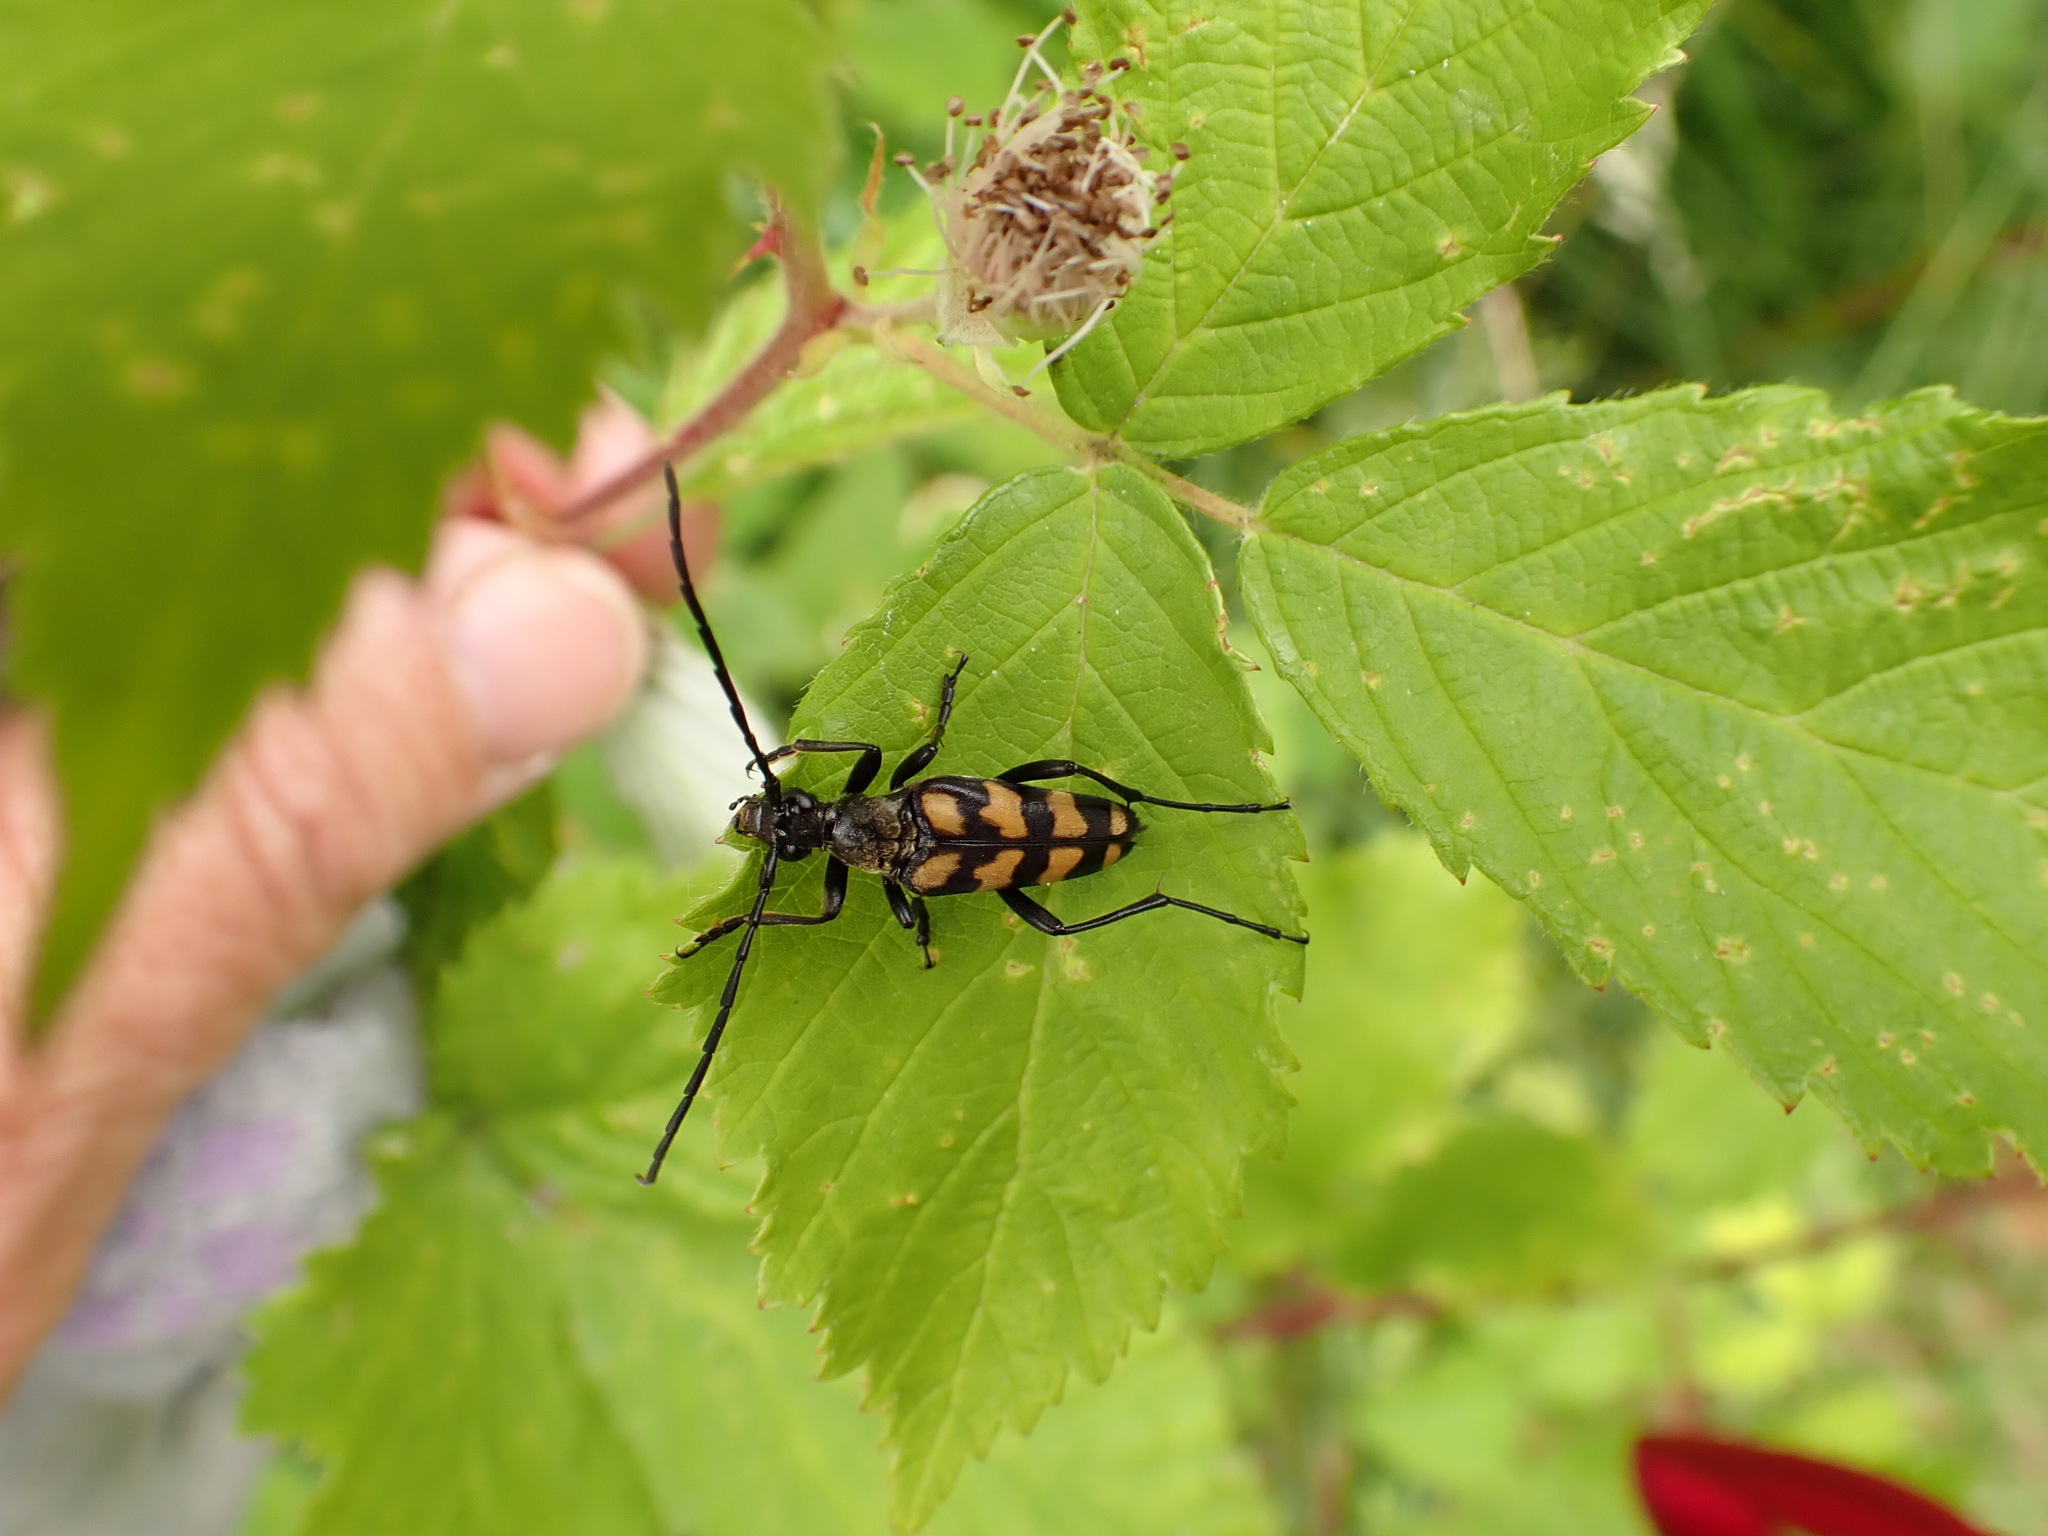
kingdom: Animalia
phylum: Arthropoda
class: Insecta
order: Coleoptera
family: Cerambycidae
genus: Leptura
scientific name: Leptura quadrifasciata
